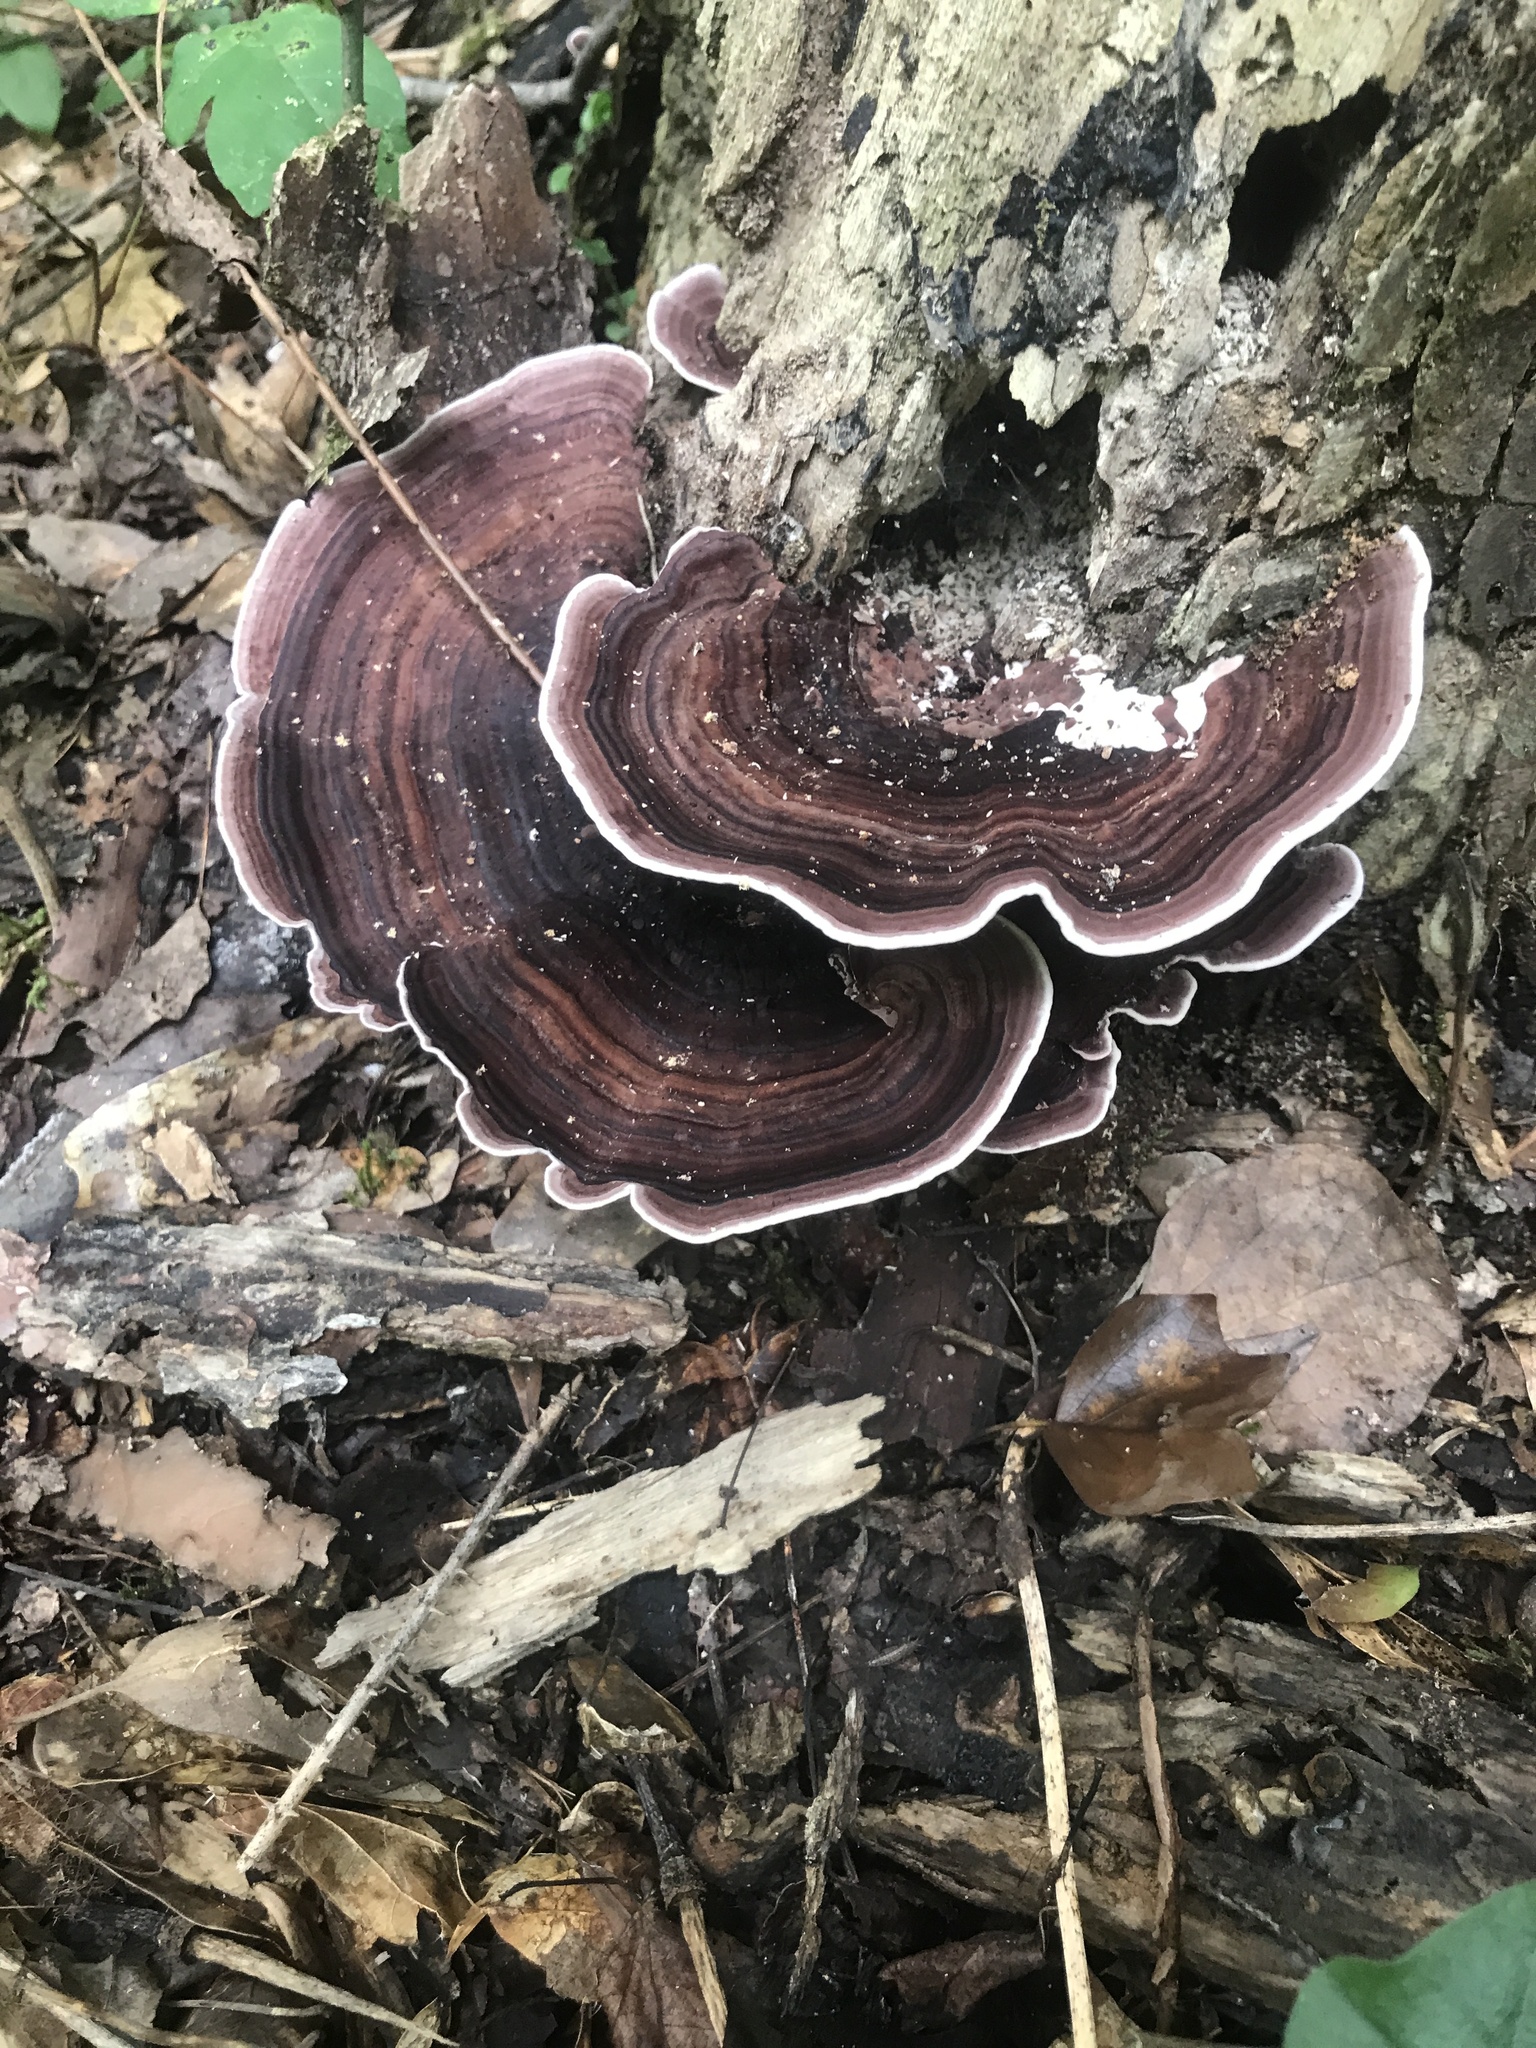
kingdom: Fungi
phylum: Basidiomycota
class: Agaricomycetes
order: Polyporales
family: Steccherinaceae
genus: Nigroporus
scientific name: Nigroporus vinosus
